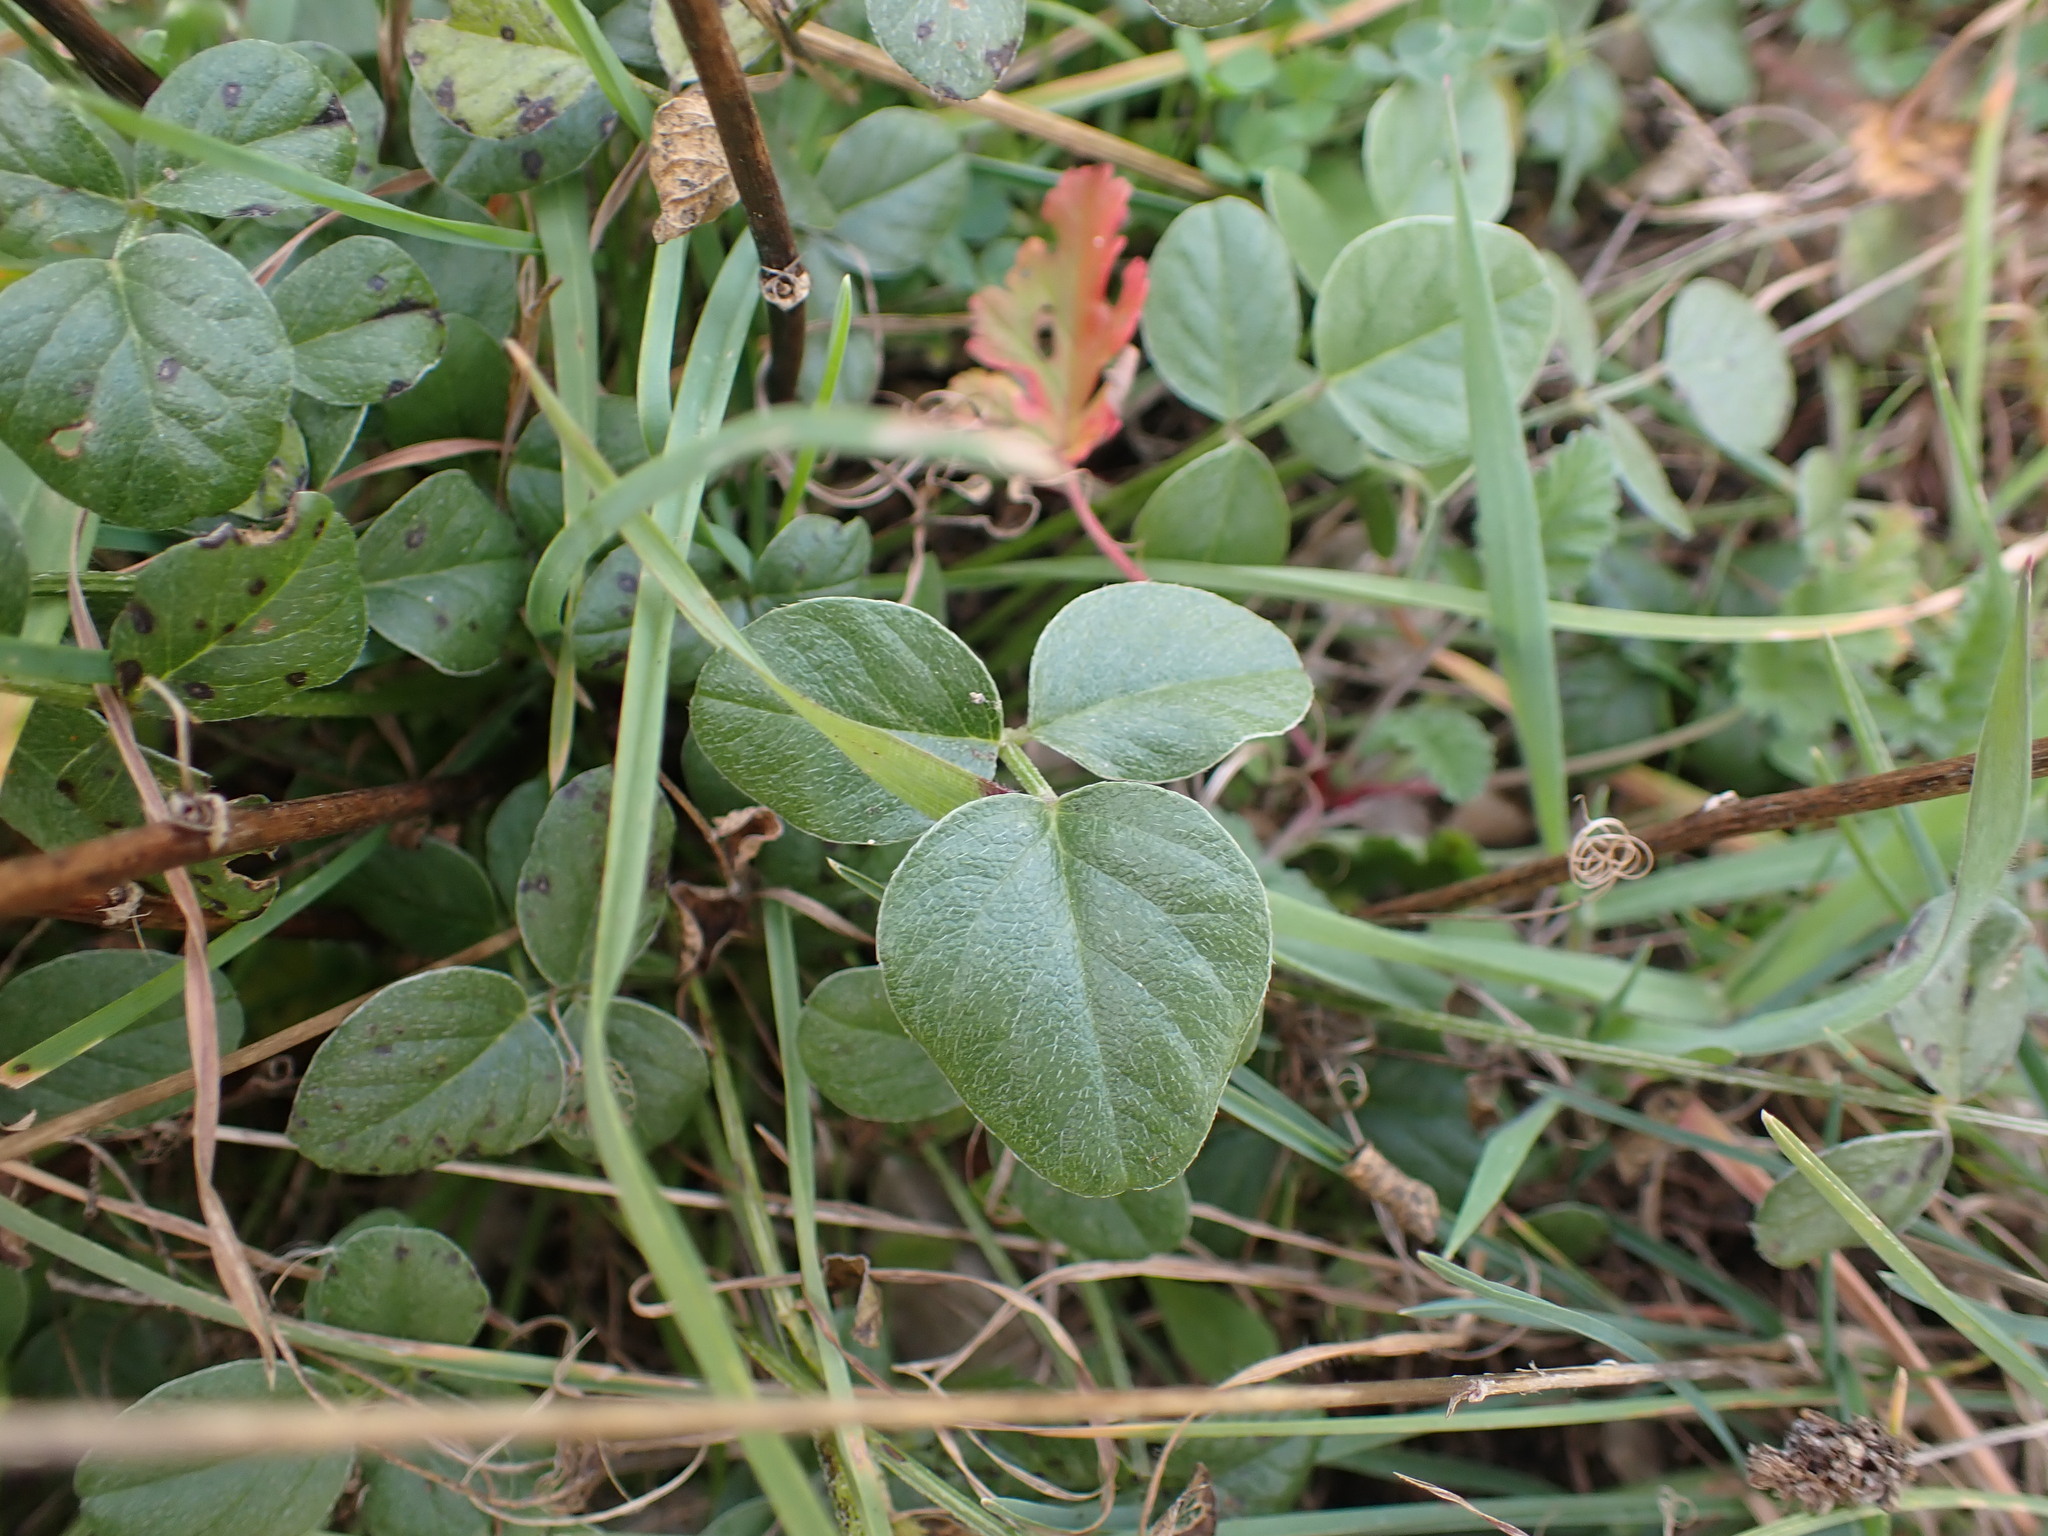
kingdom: Plantae
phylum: Tracheophyta
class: Magnoliopsida
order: Fabales
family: Fabaceae
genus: Bituminaria
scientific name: Bituminaria bituminosa
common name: Arabian pea
